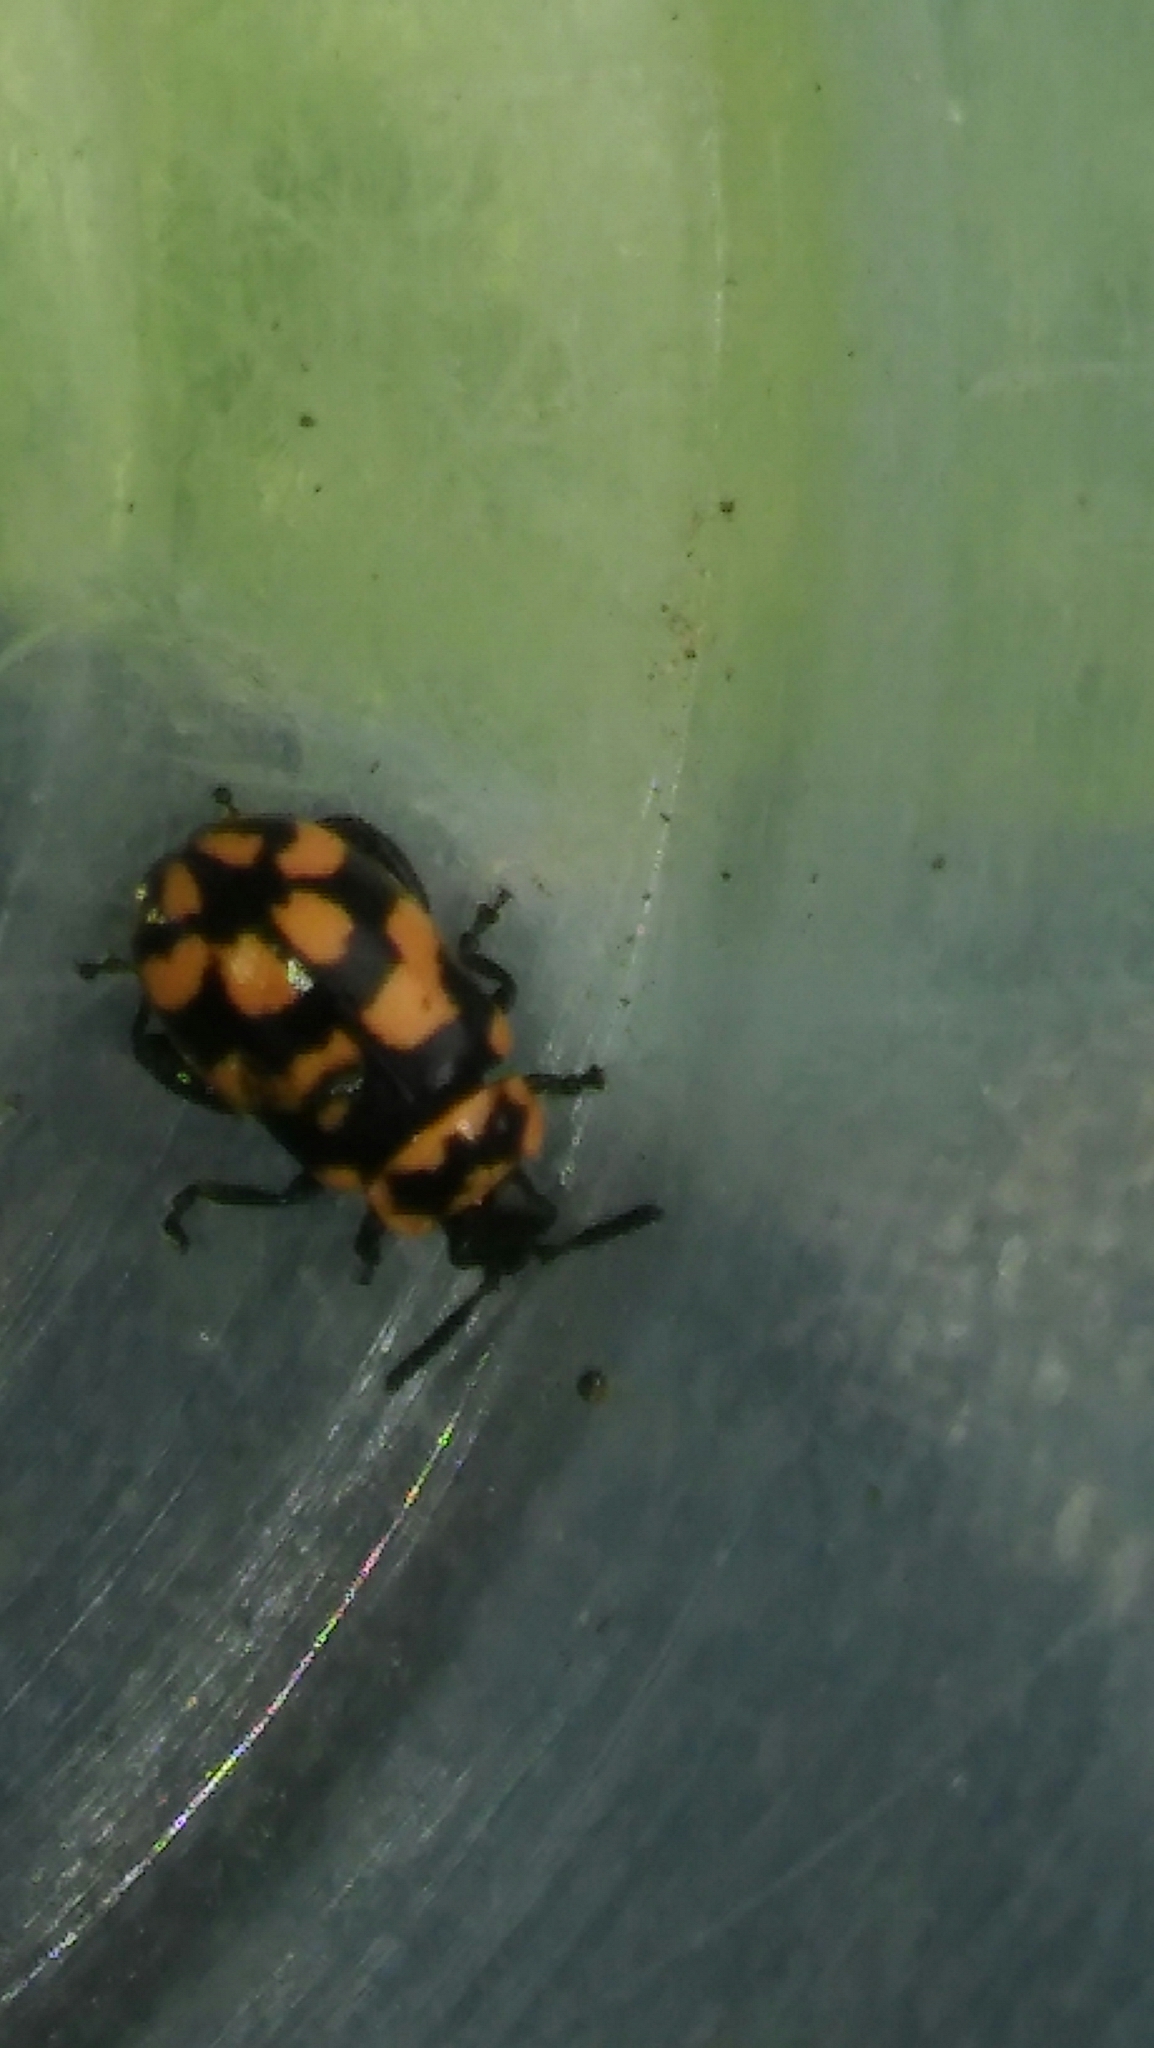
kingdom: Animalia
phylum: Arthropoda
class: Insecta
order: Coleoptera
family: Chrysomelidae
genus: Kuschelina
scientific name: Kuschelina
